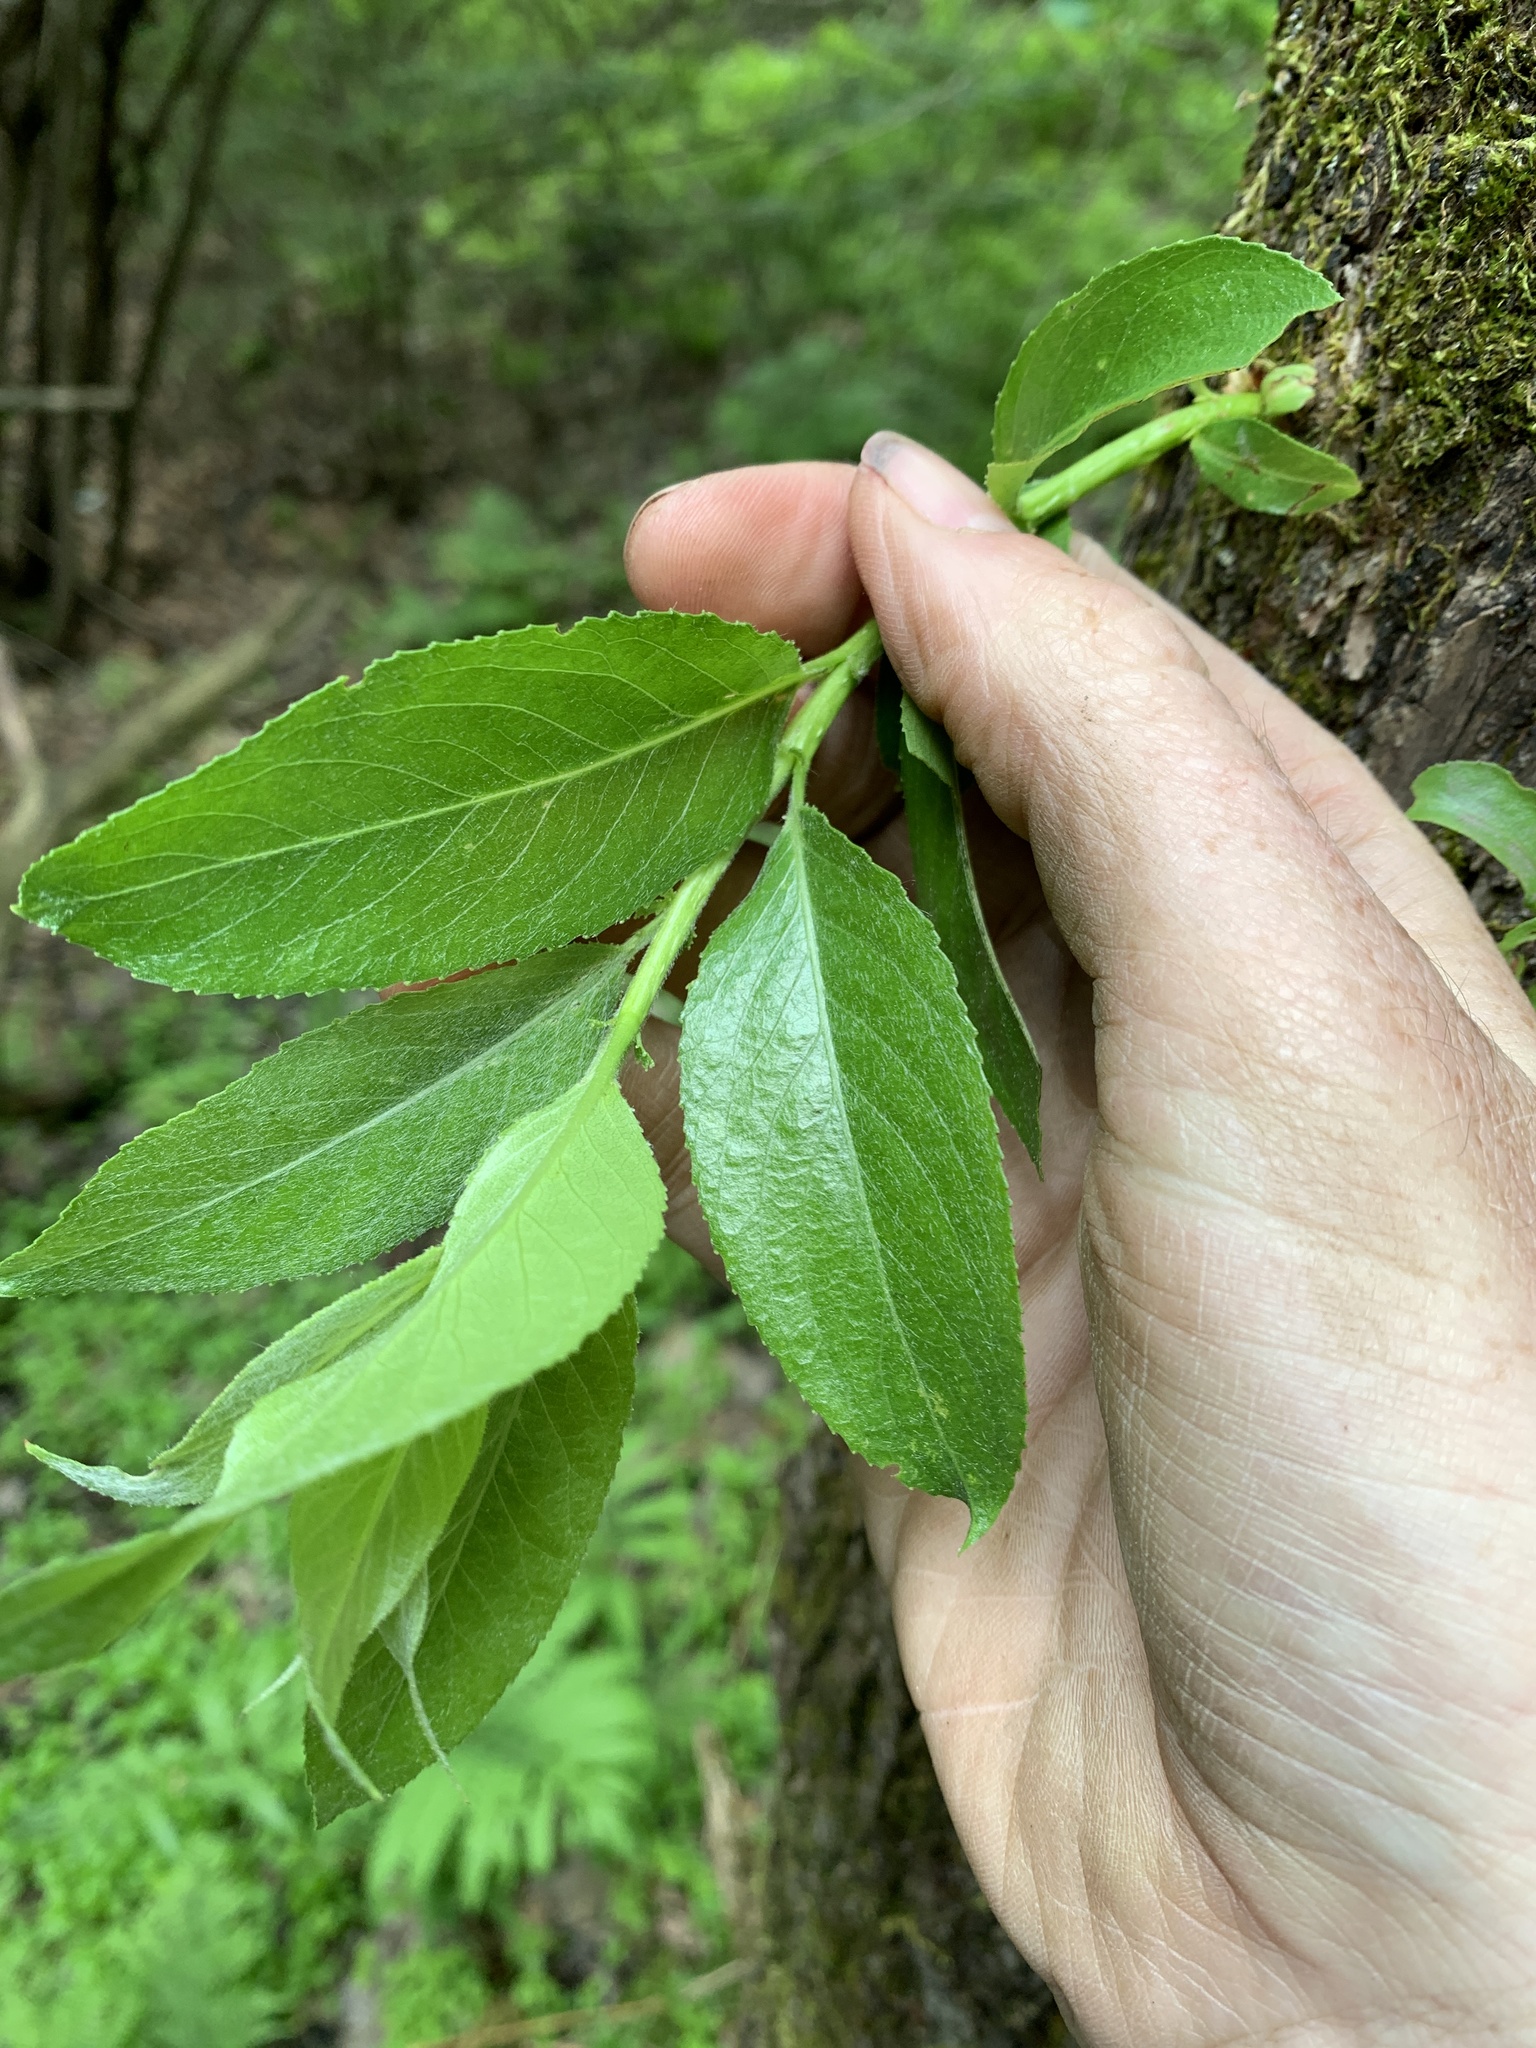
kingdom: Plantae
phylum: Tracheophyta
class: Magnoliopsida
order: Malpighiales
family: Salicaceae
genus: Salix
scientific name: Salix fragilis
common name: Crack willow
